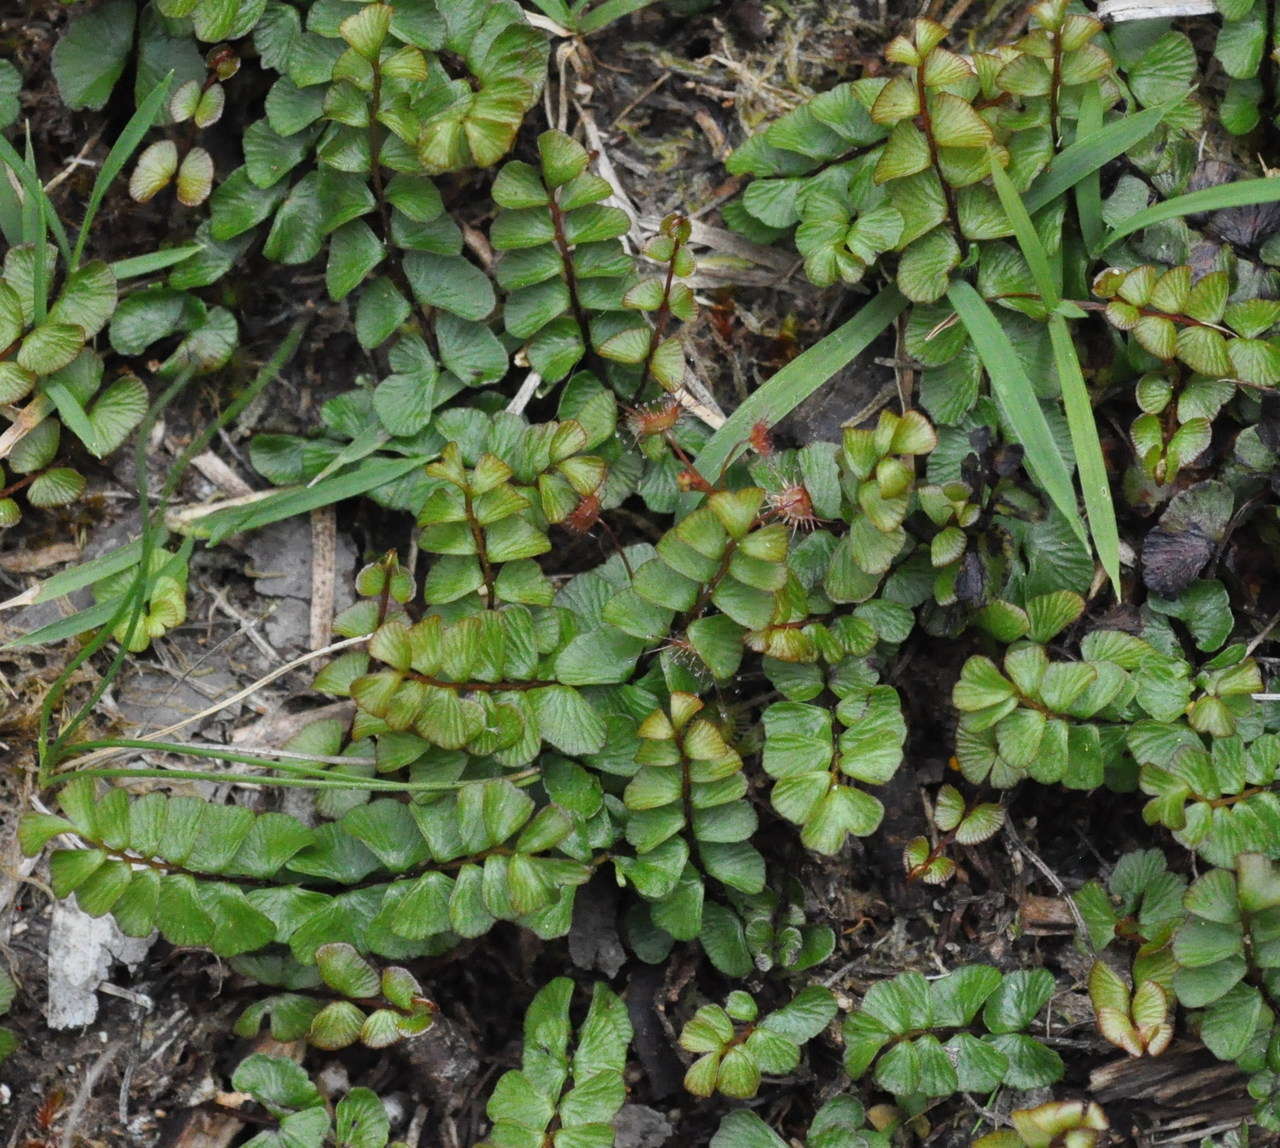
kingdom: Plantae
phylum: Tracheophyta
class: Polypodiopsida
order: Polypodiales
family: Lindsaeaceae
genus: Lindsaea
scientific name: Lindsaea linearis
